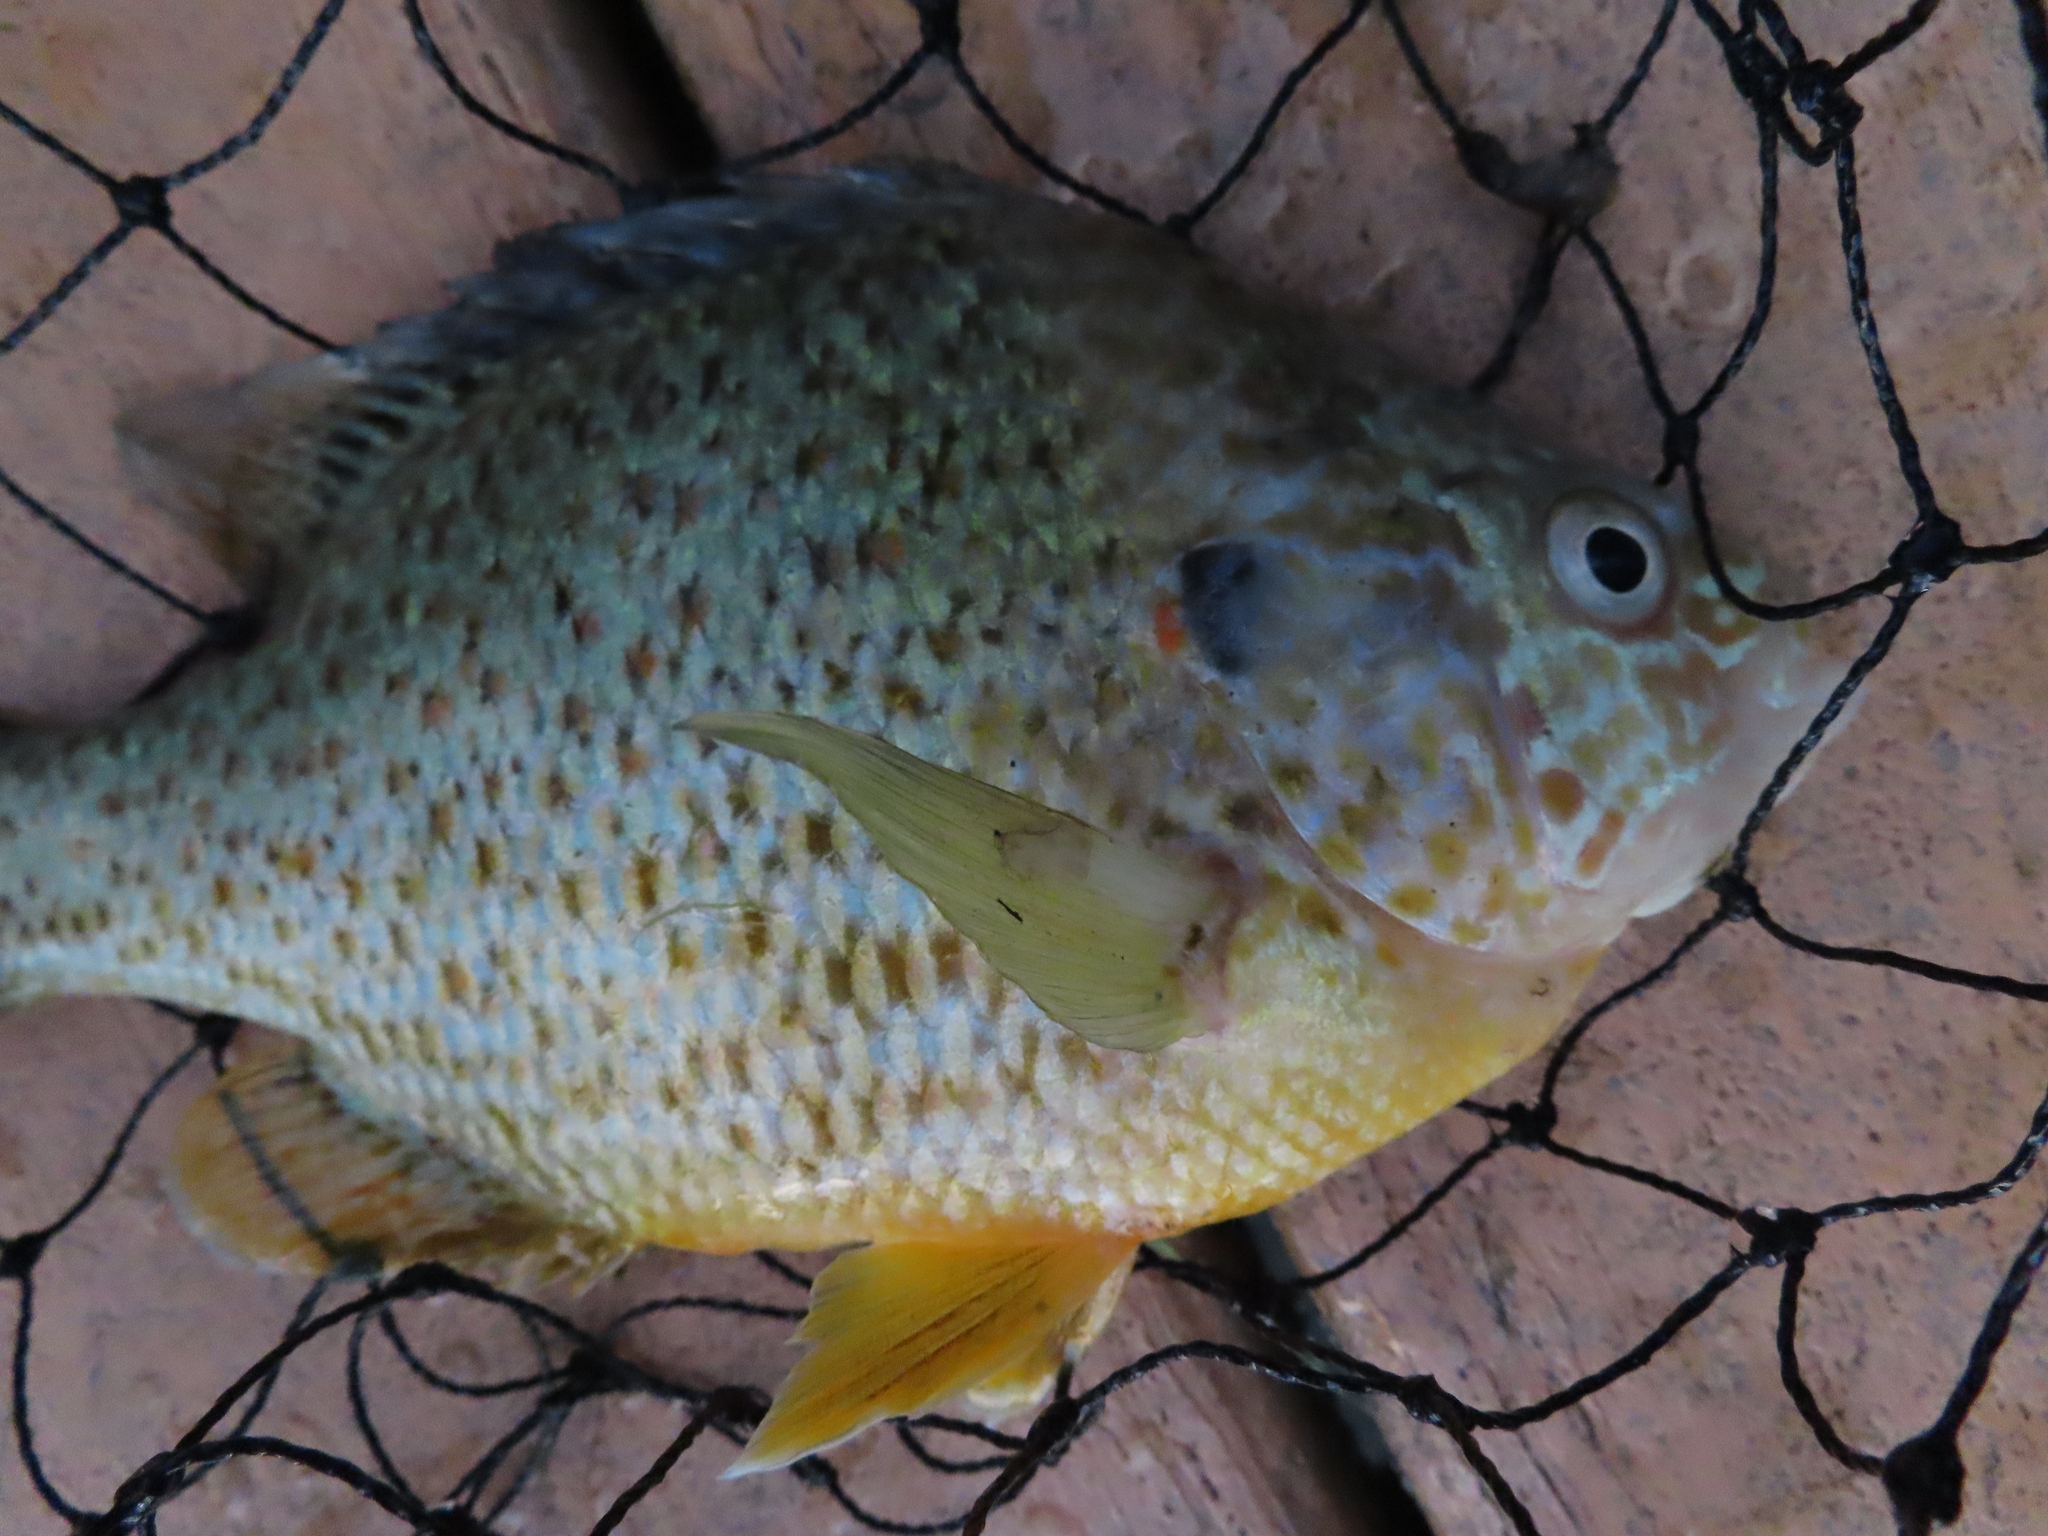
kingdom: Animalia
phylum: Chordata
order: Perciformes
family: Centrarchidae
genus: Lepomis
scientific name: Lepomis gibbosus
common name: Pumpkinseed
